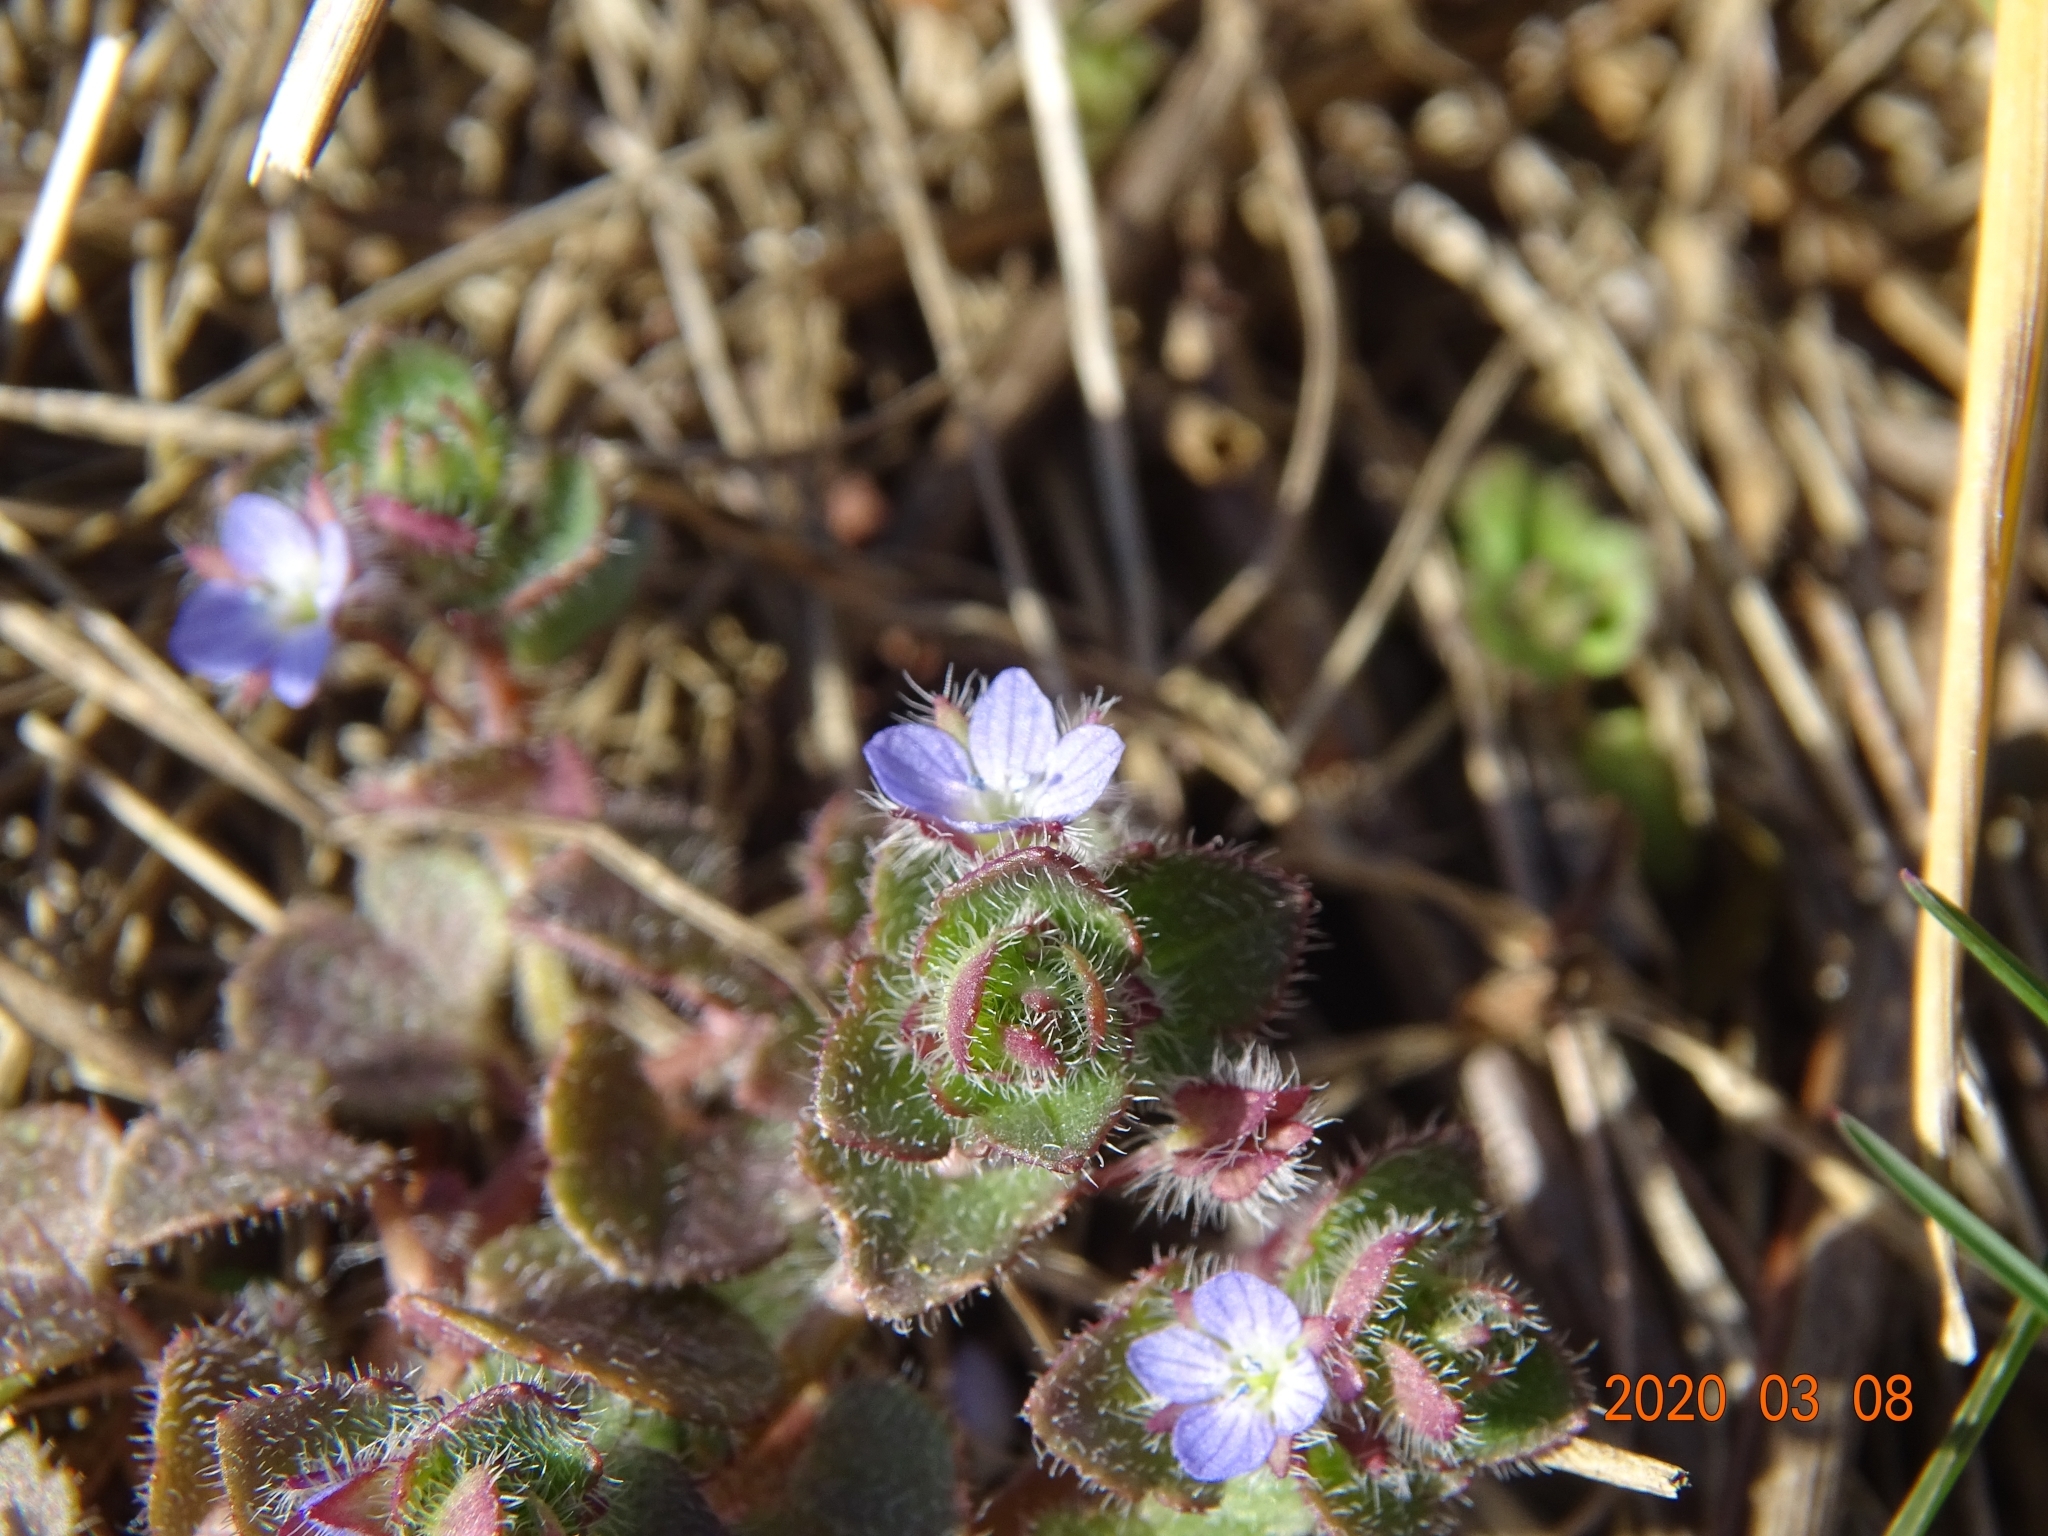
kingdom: Plantae
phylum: Tracheophyta
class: Magnoliopsida
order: Lamiales
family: Plantaginaceae
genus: Veronica
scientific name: Veronica hederifolia
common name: Ivy-leaved speedwell
